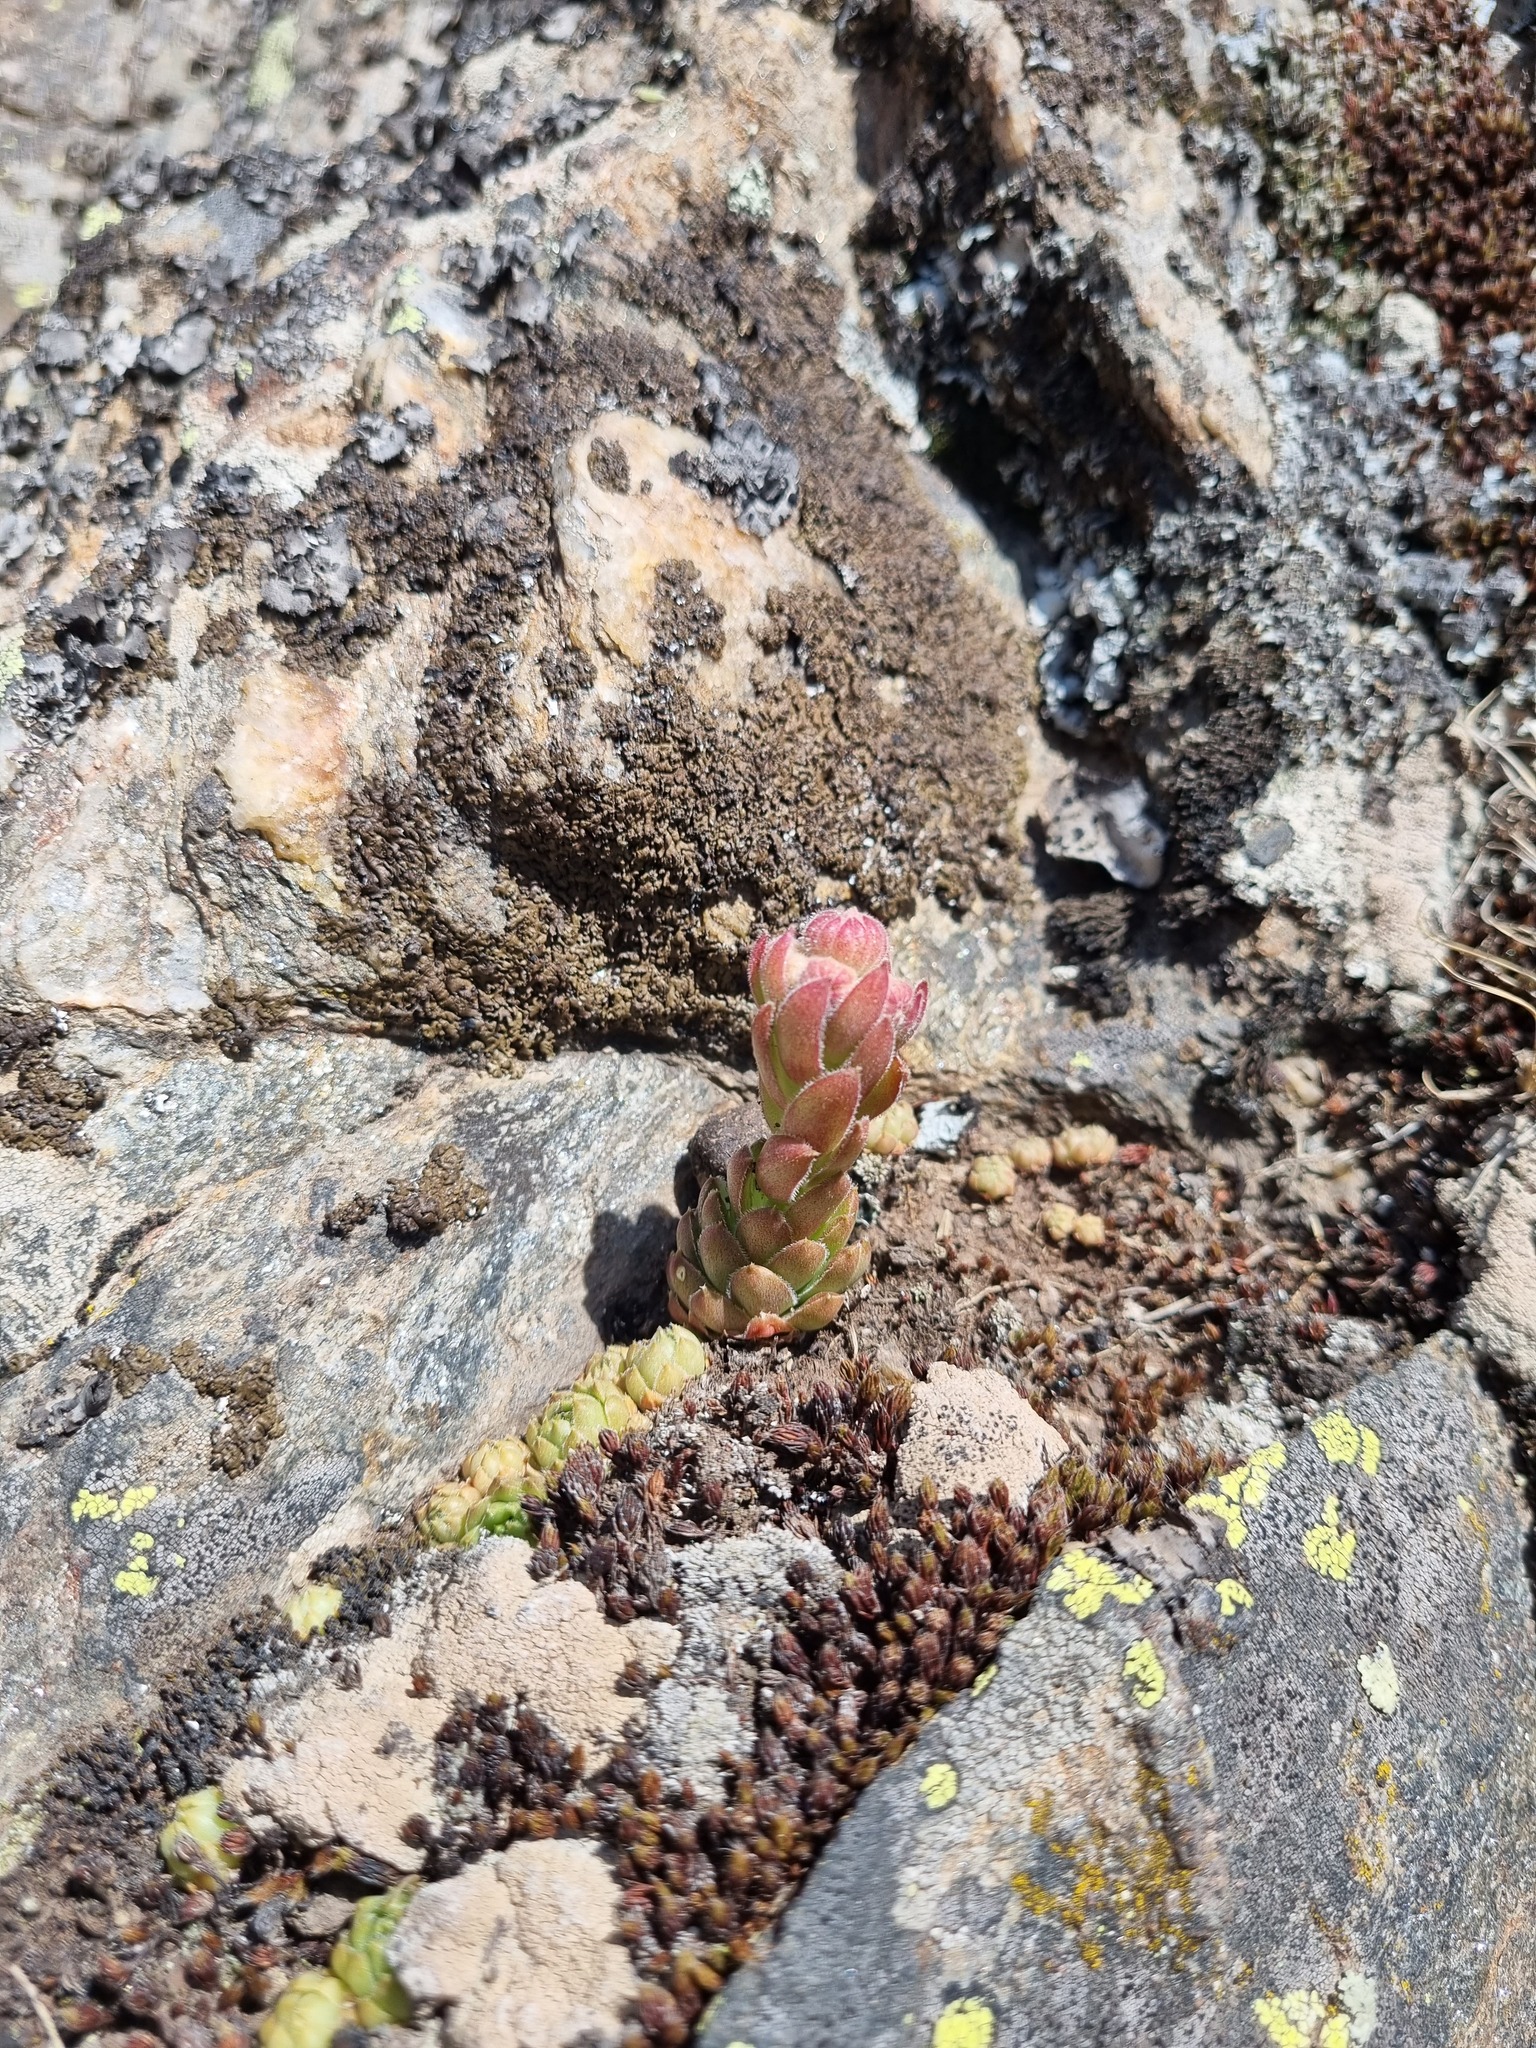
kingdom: Plantae
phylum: Tracheophyta
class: Magnoliopsida
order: Saxifragales
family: Crassulaceae
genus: Sempervivum
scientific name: Sempervivum caucasicum
